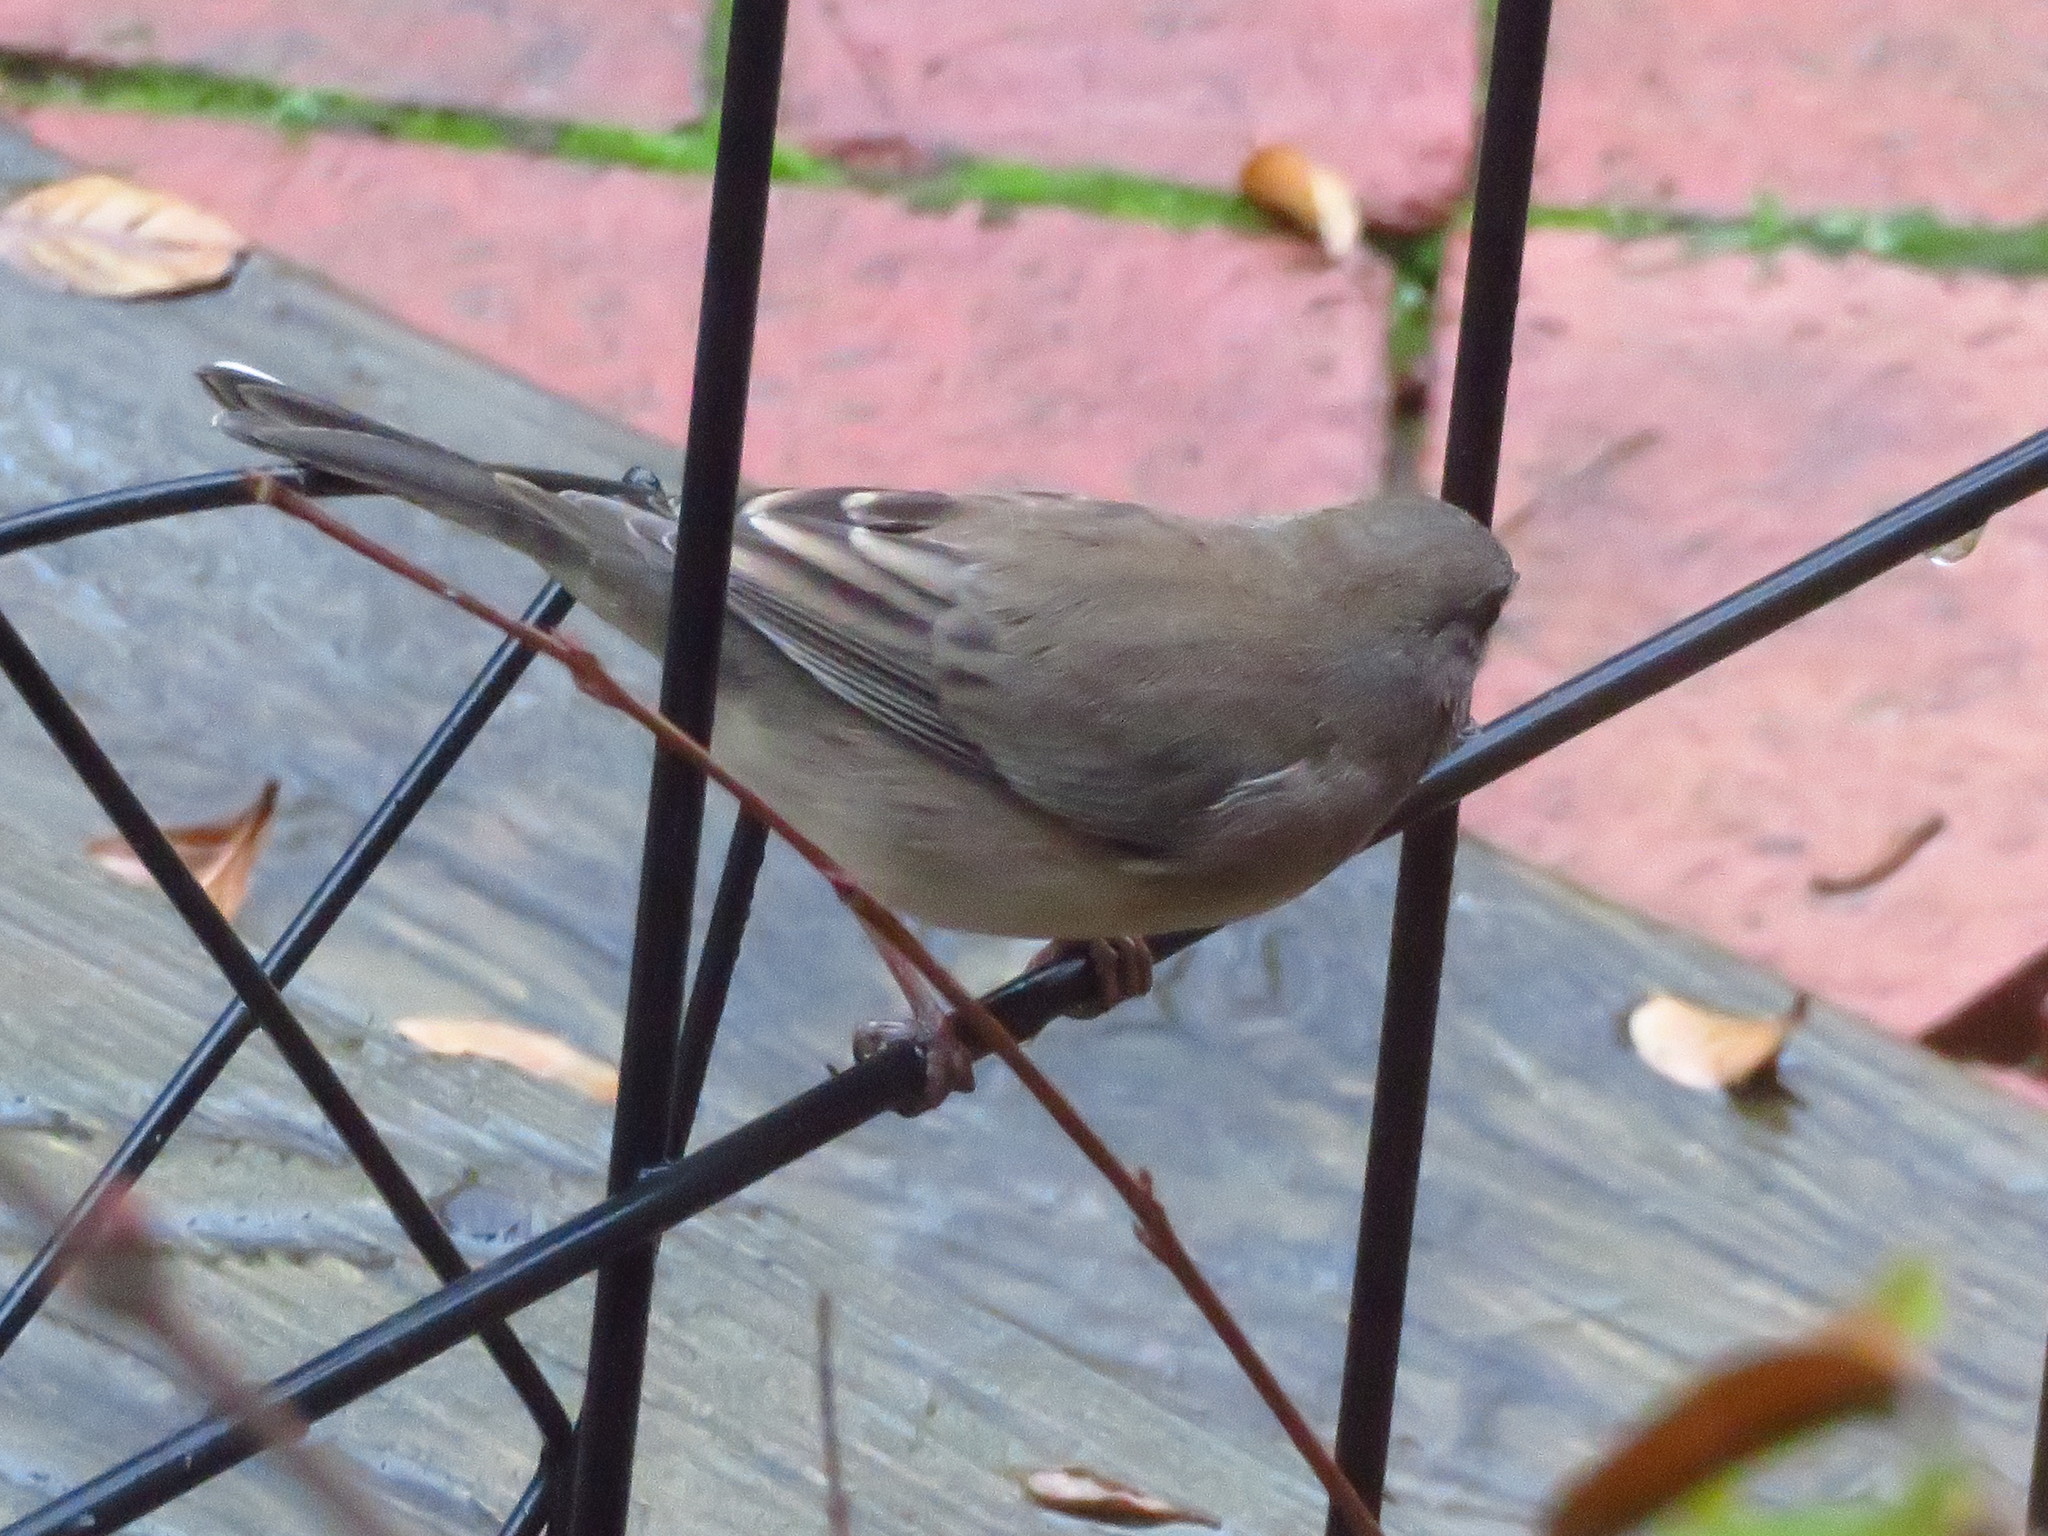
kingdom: Animalia
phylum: Chordata
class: Aves
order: Passeriformes
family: Passerellidae
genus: Junco
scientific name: Junco hyemalis
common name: Dark-eyed junco
